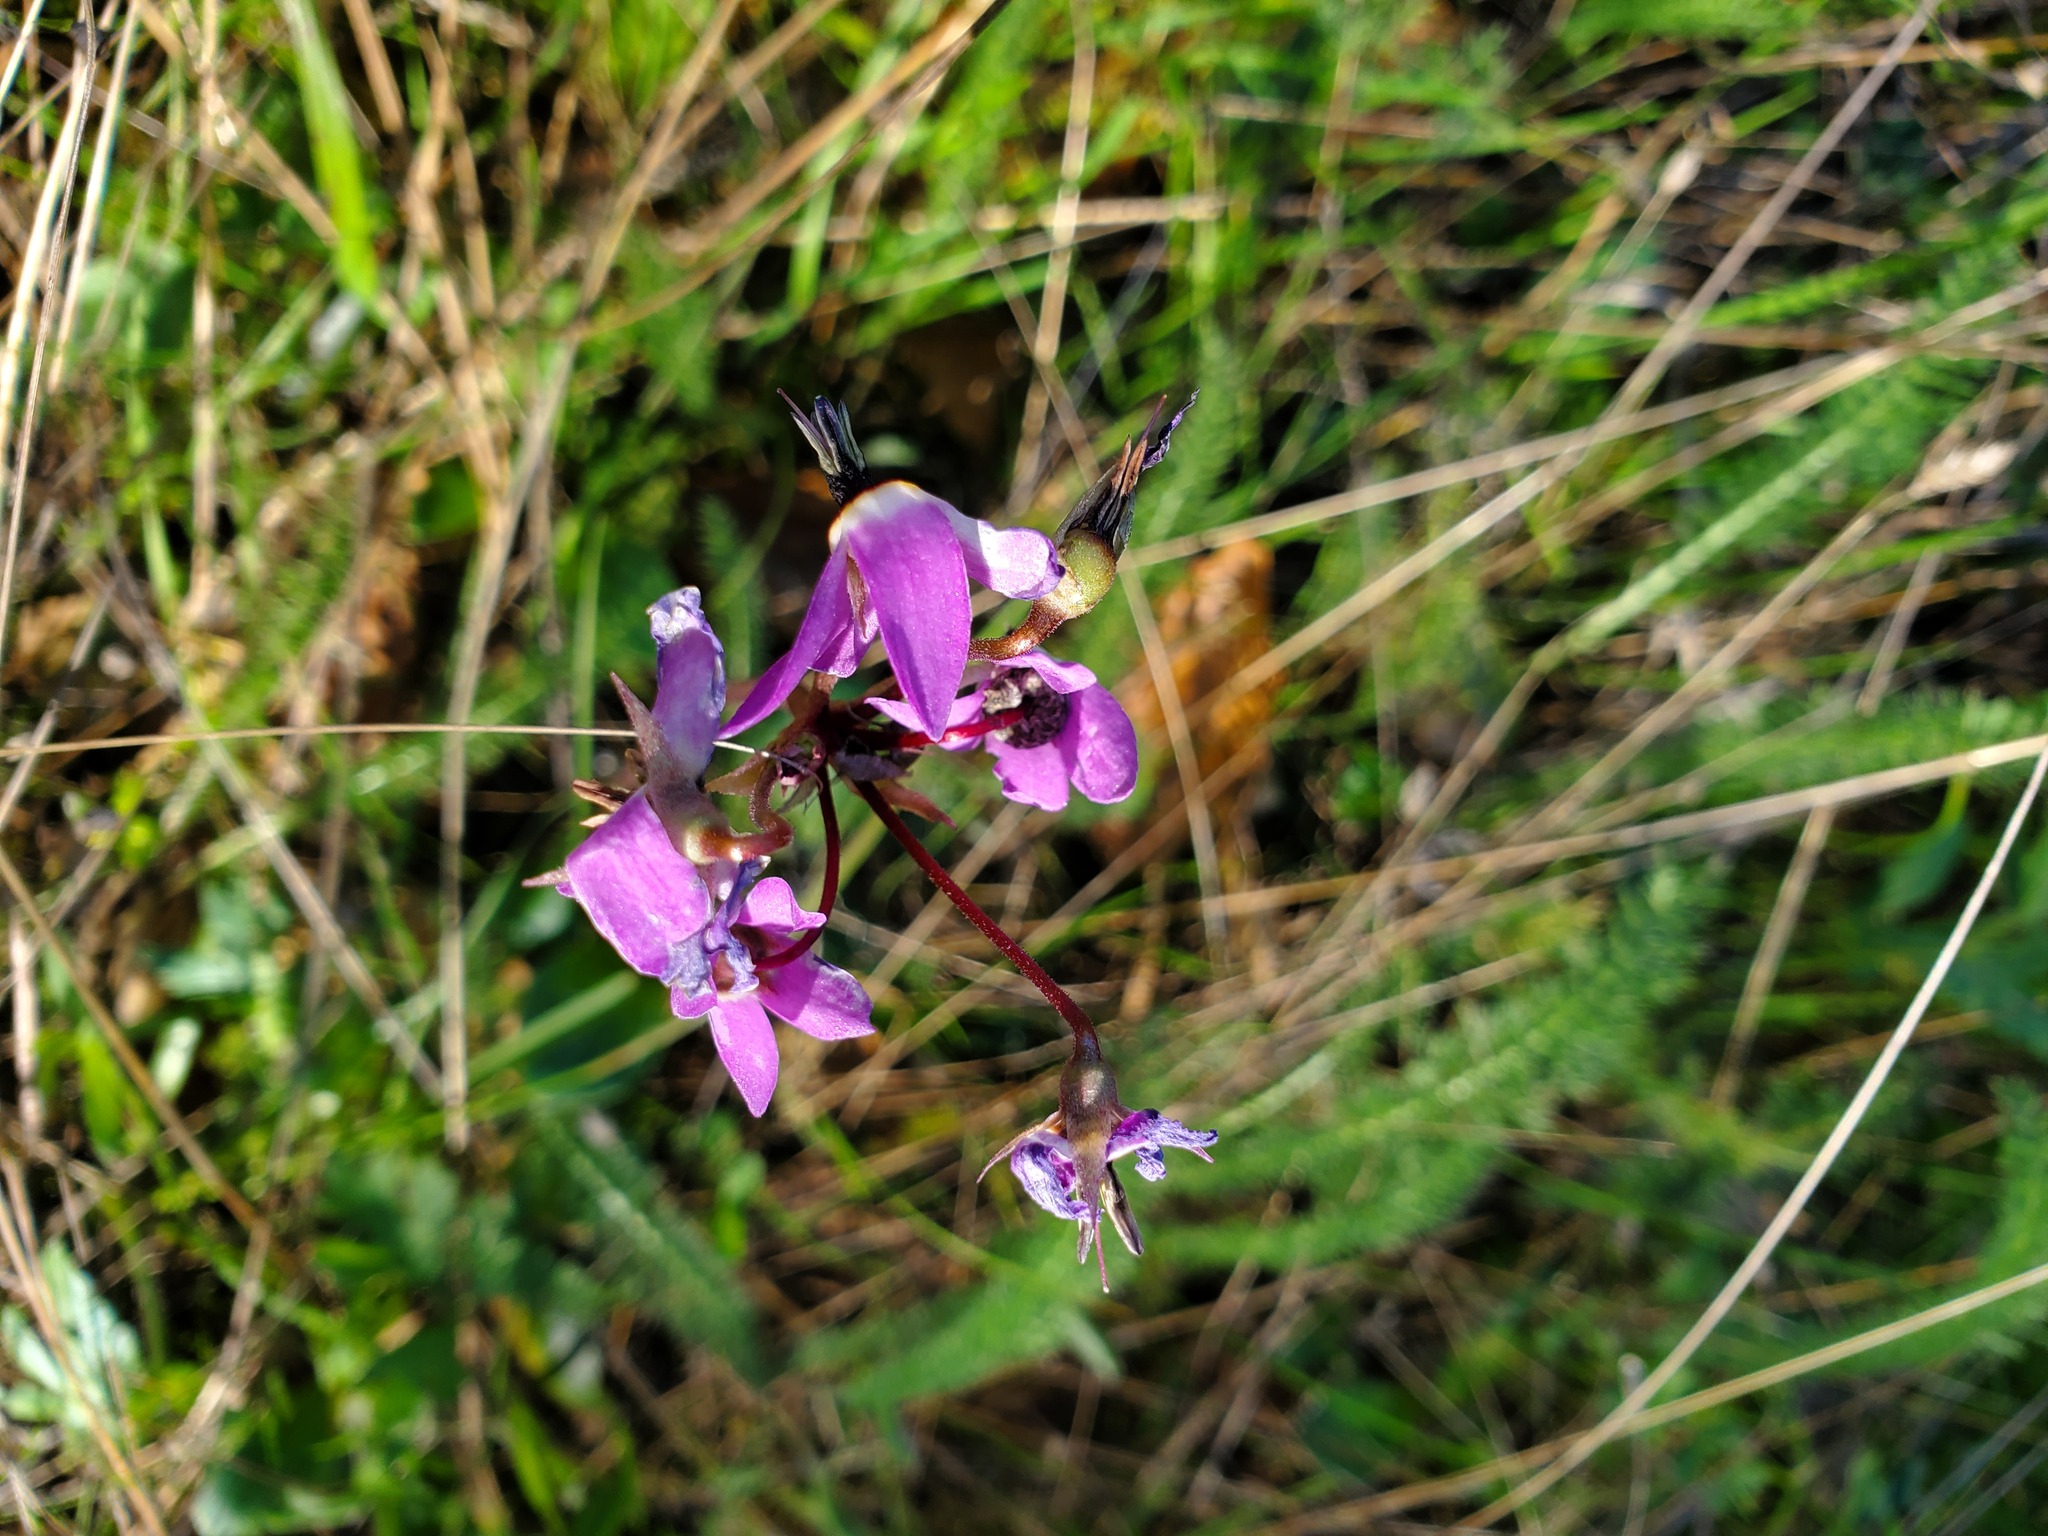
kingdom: Plantae
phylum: Tracheophyta
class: Magnoliopsida
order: Ericales
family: Primulaceae
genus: Dodecatheon
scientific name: Dodecatheon hendersonii
